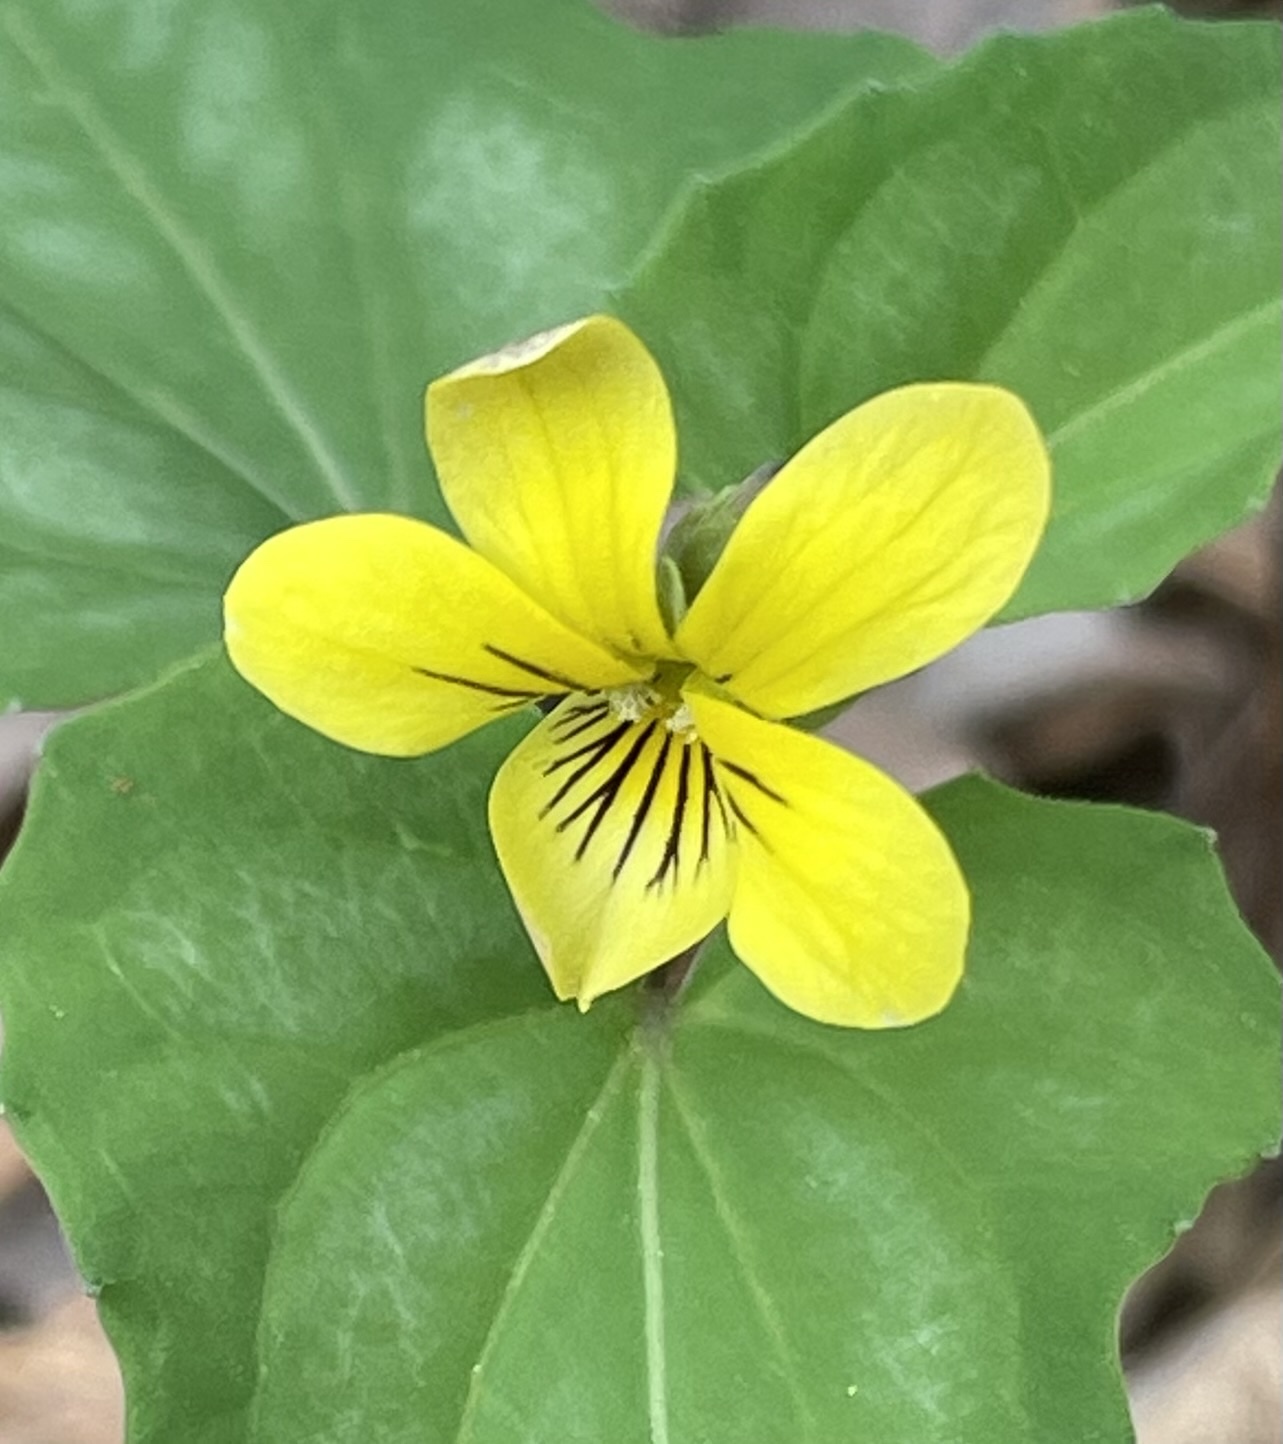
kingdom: Plantae
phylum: Tracheophyta
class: Magnoliopsida
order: Malpighiales
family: Violaceae
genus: Viola
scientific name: Viola hastata
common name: Spear-leaf violet
